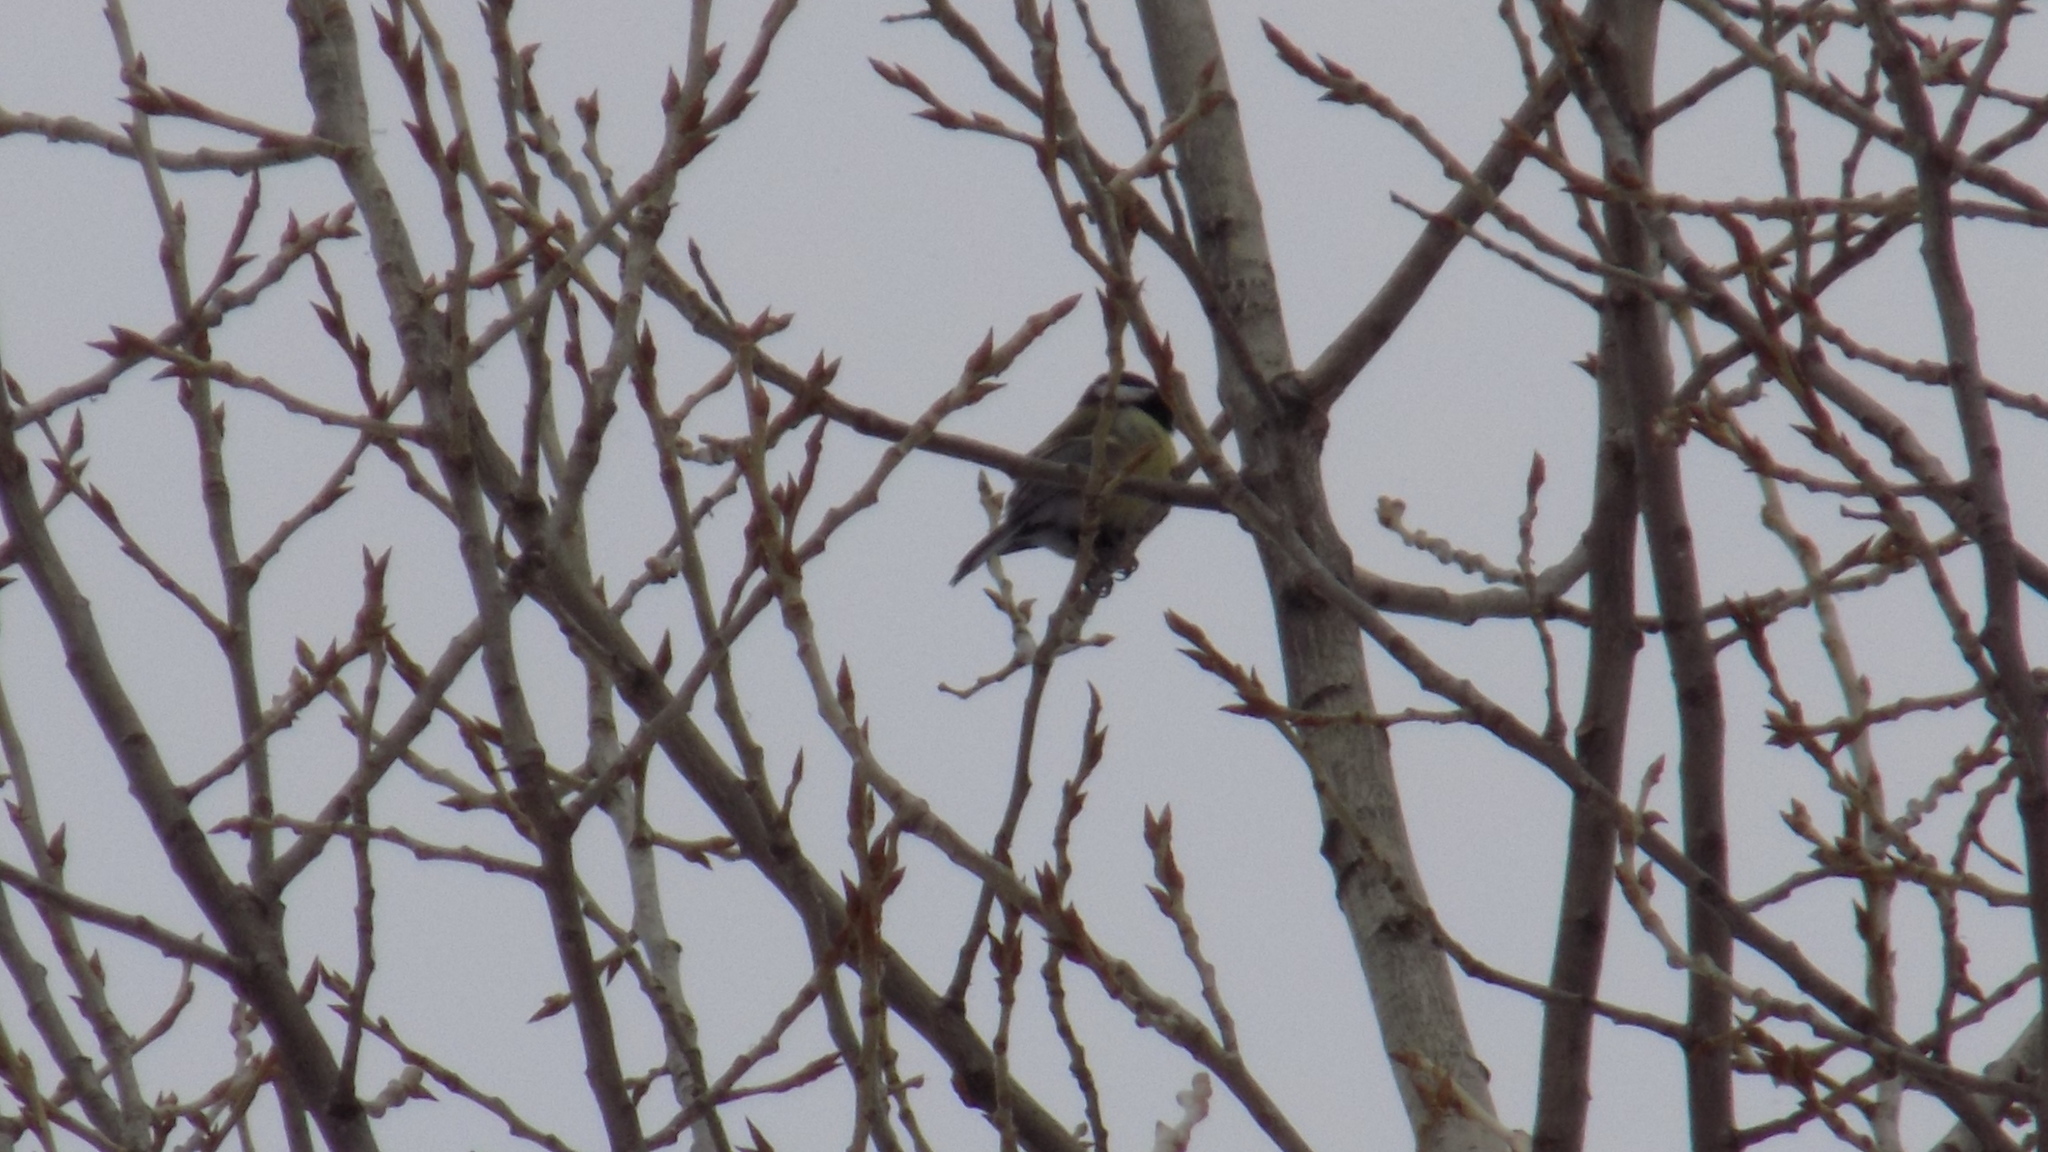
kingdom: Animalia
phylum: Chordata
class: Aves
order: Passeriformes
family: Paridae
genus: Parus
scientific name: Parus major
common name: Great tit
